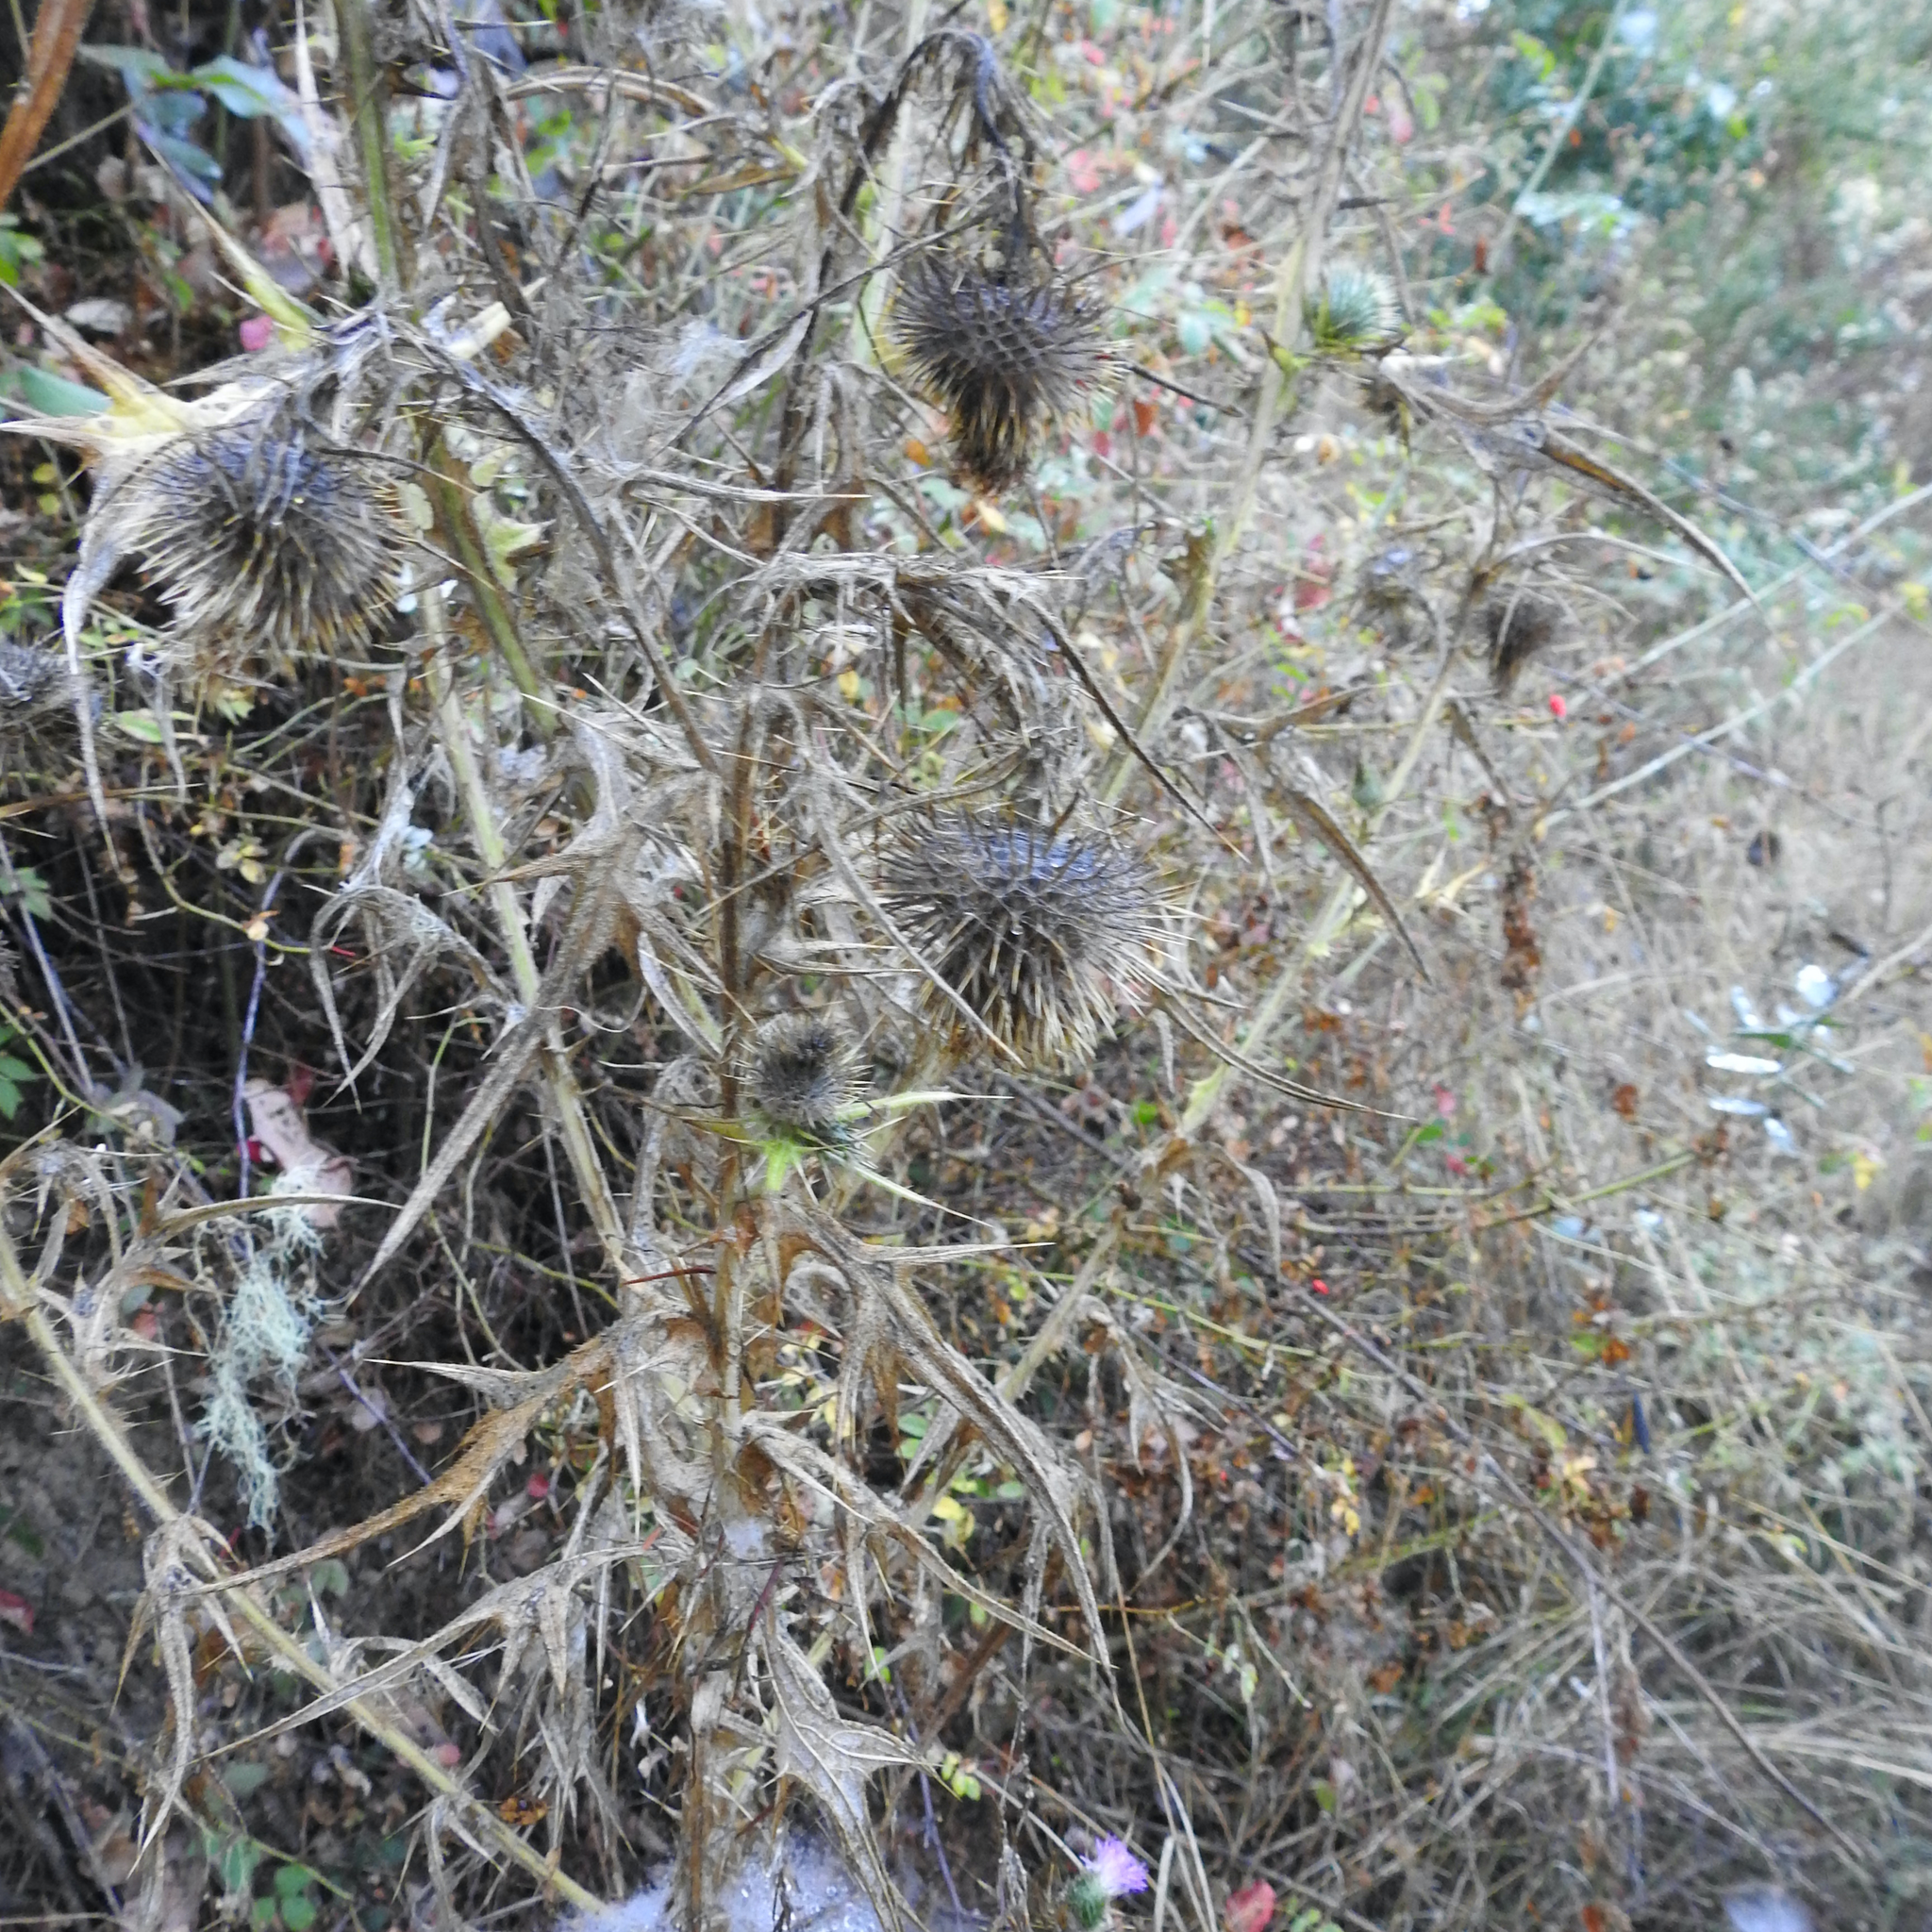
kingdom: Plantae
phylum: Tracheophyta
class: Magnoliopsida
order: Asterales
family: Asteraceae
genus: Cirsium
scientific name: Cirsium vulgare
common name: Bull thistle
